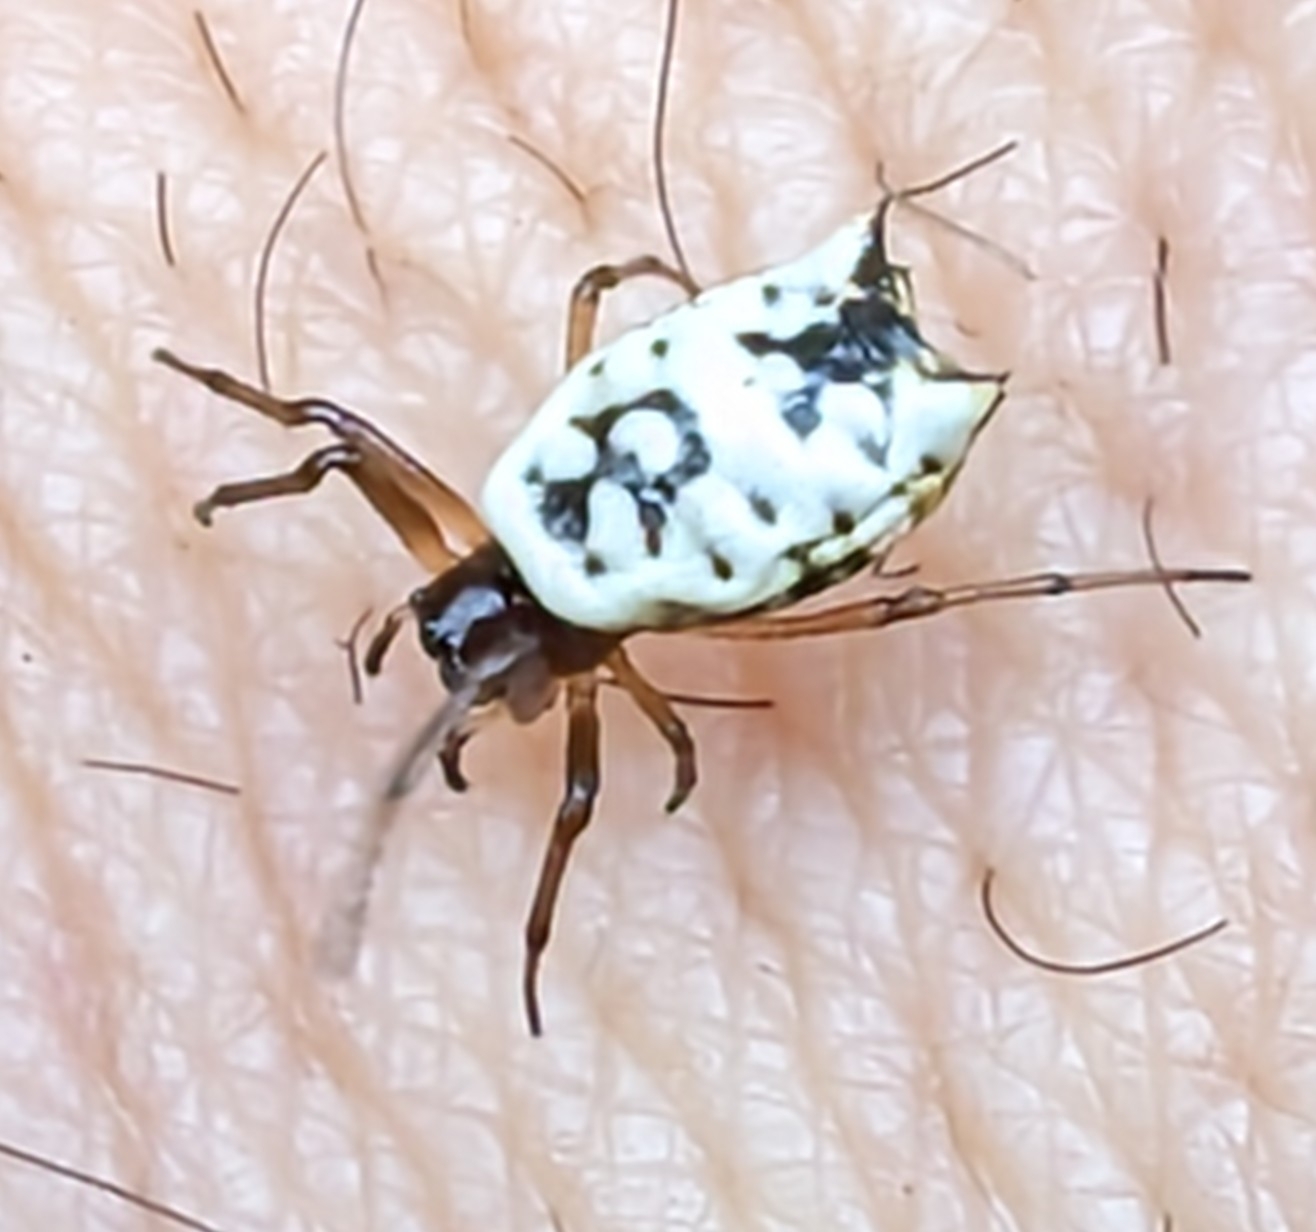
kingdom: Animalia
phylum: Arthropoda
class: Arachnida
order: Araneae
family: Araneidae
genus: Micrathena
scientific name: Micrathena mitrata
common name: Orb weavers
